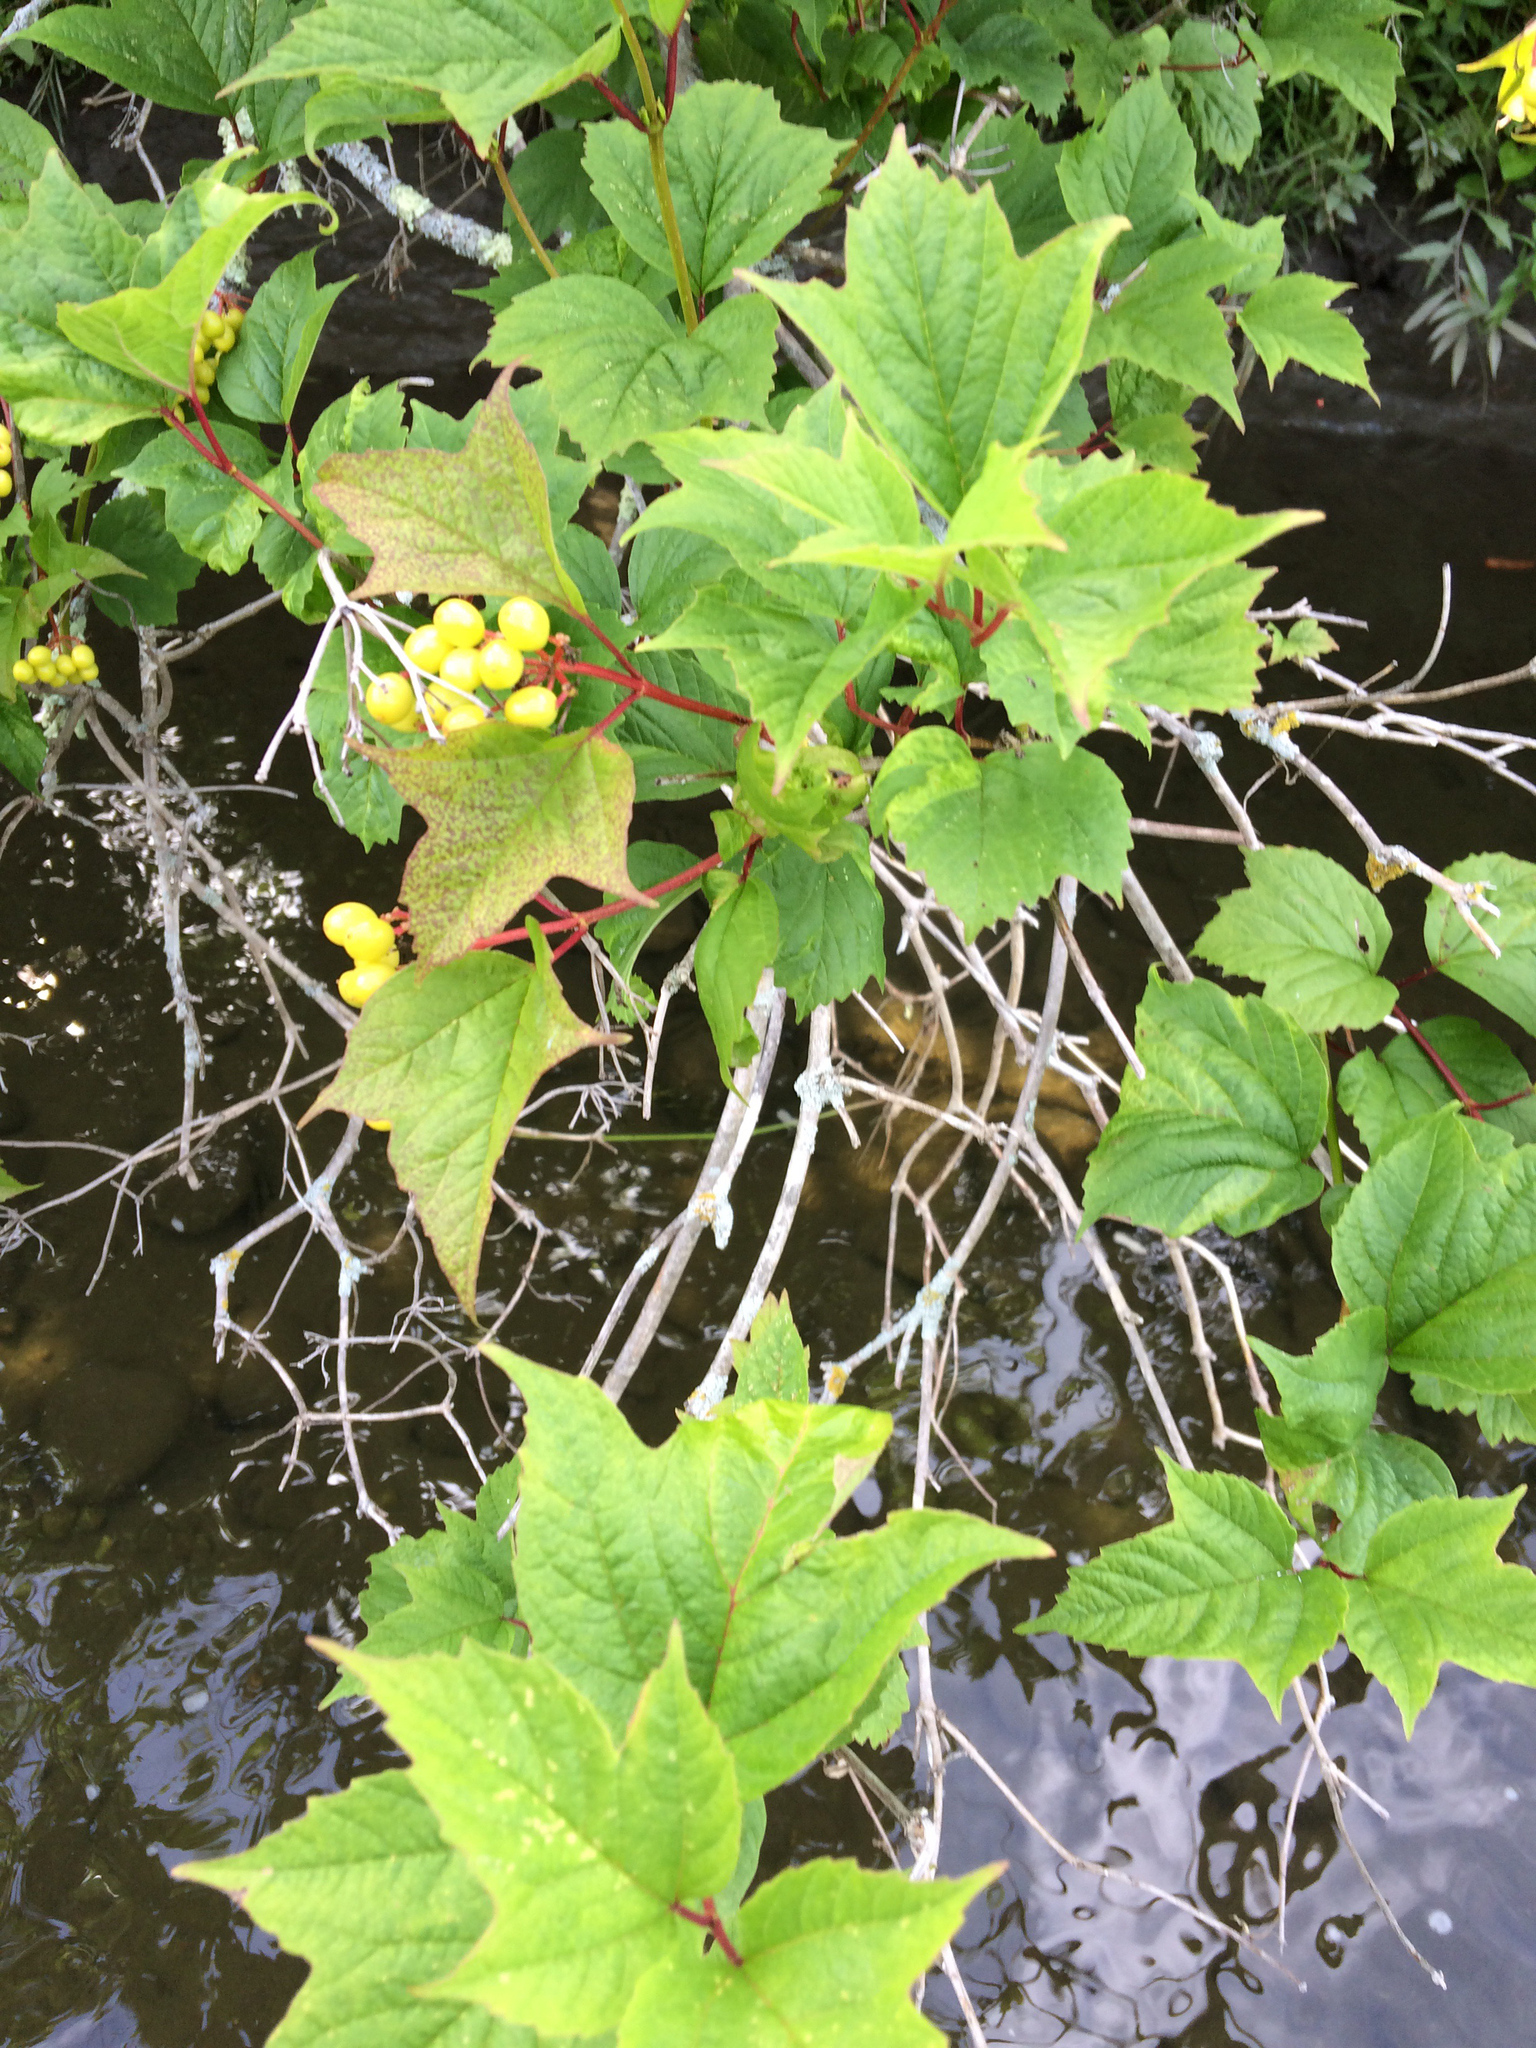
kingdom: Plantae
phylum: Tracheophyta
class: Magnoliopsida
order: Dipsacales
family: Viburnaceae
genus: Viburnum
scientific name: Viburnum opulus
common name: Guelder-rose
